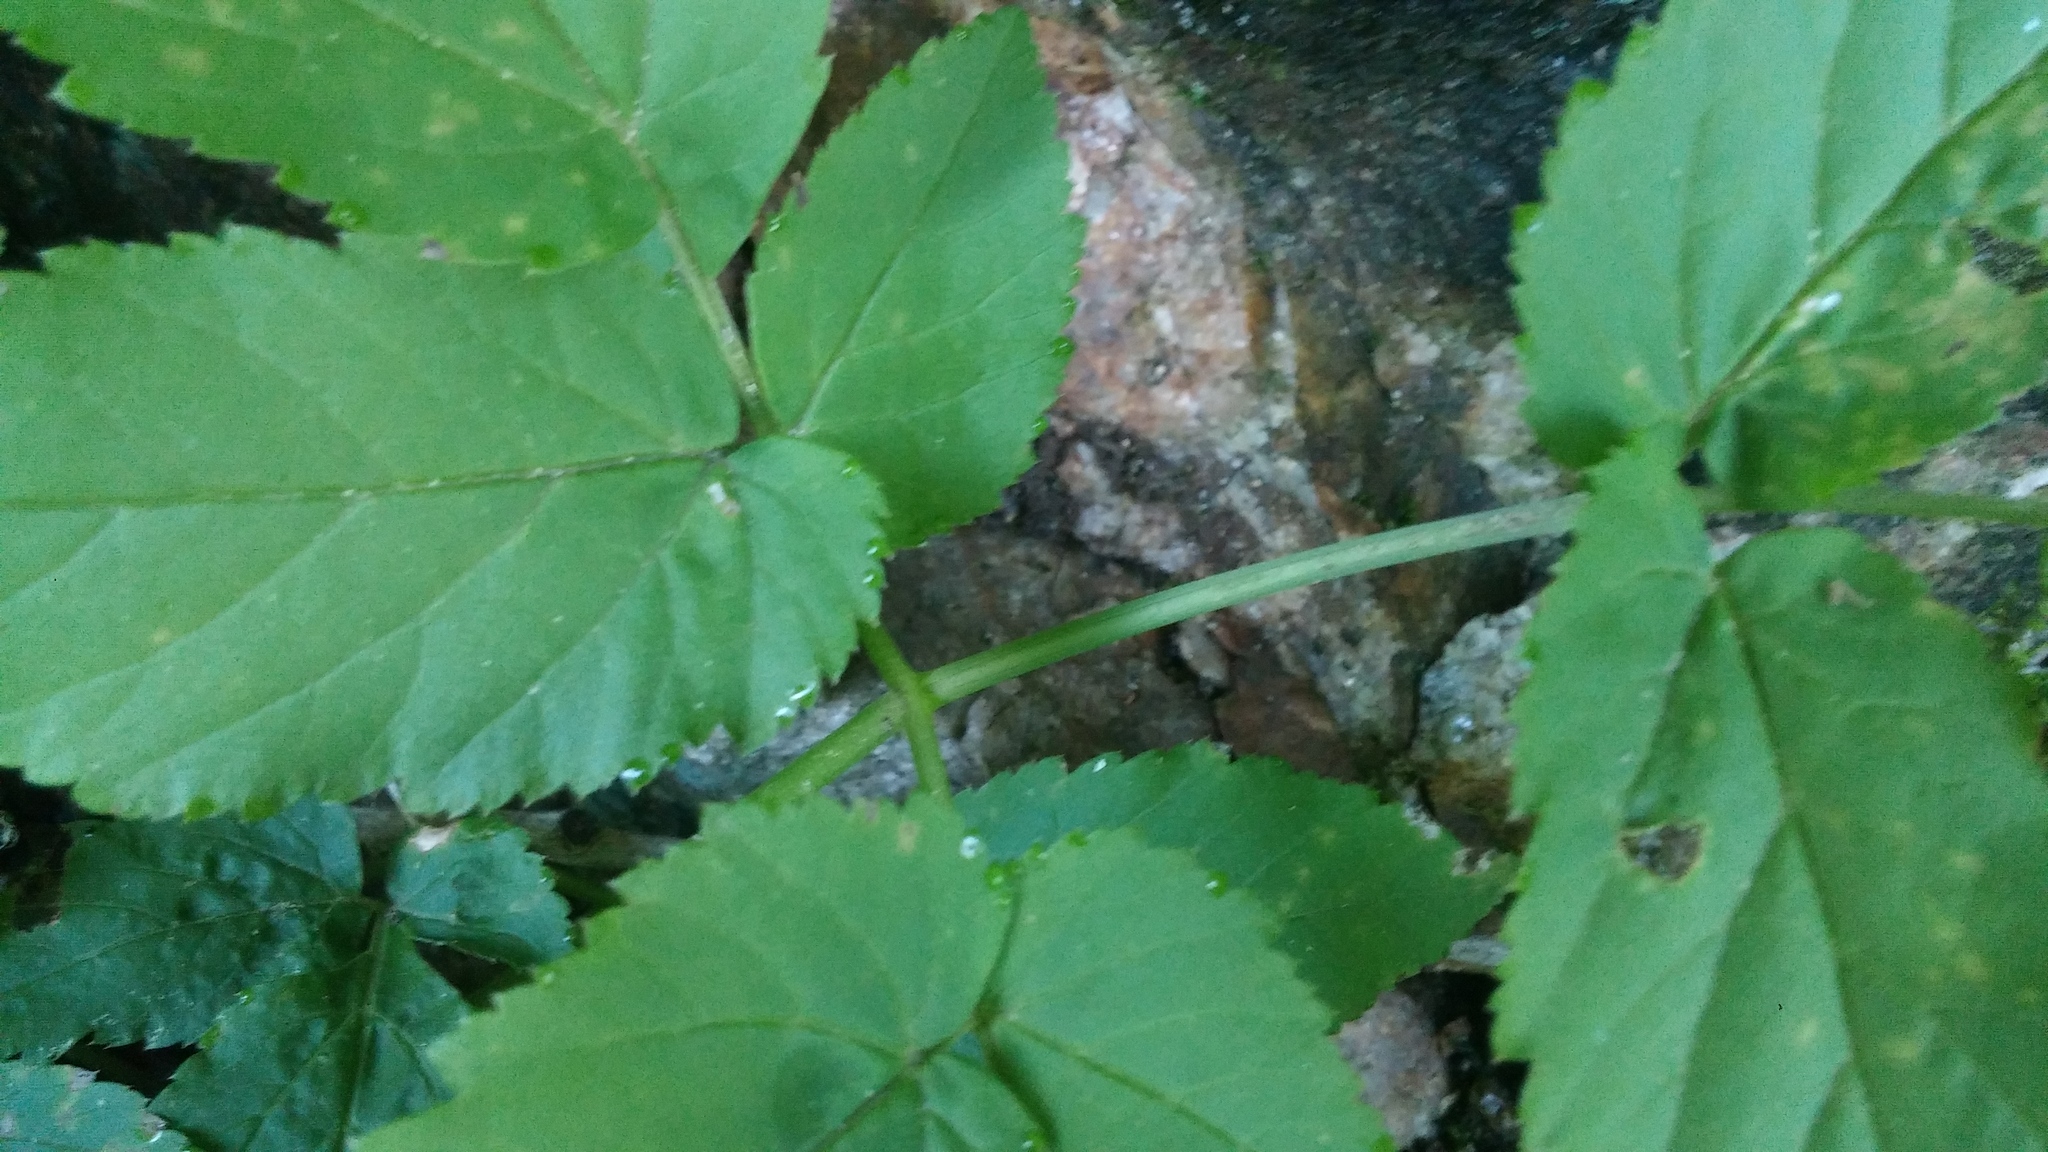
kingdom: Plantae
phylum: Tracheophyta
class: Magnoliopsida
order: Apiales
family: Apiaceae
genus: Aegopodium
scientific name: Aegopodium podagraria
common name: Ground-elder
